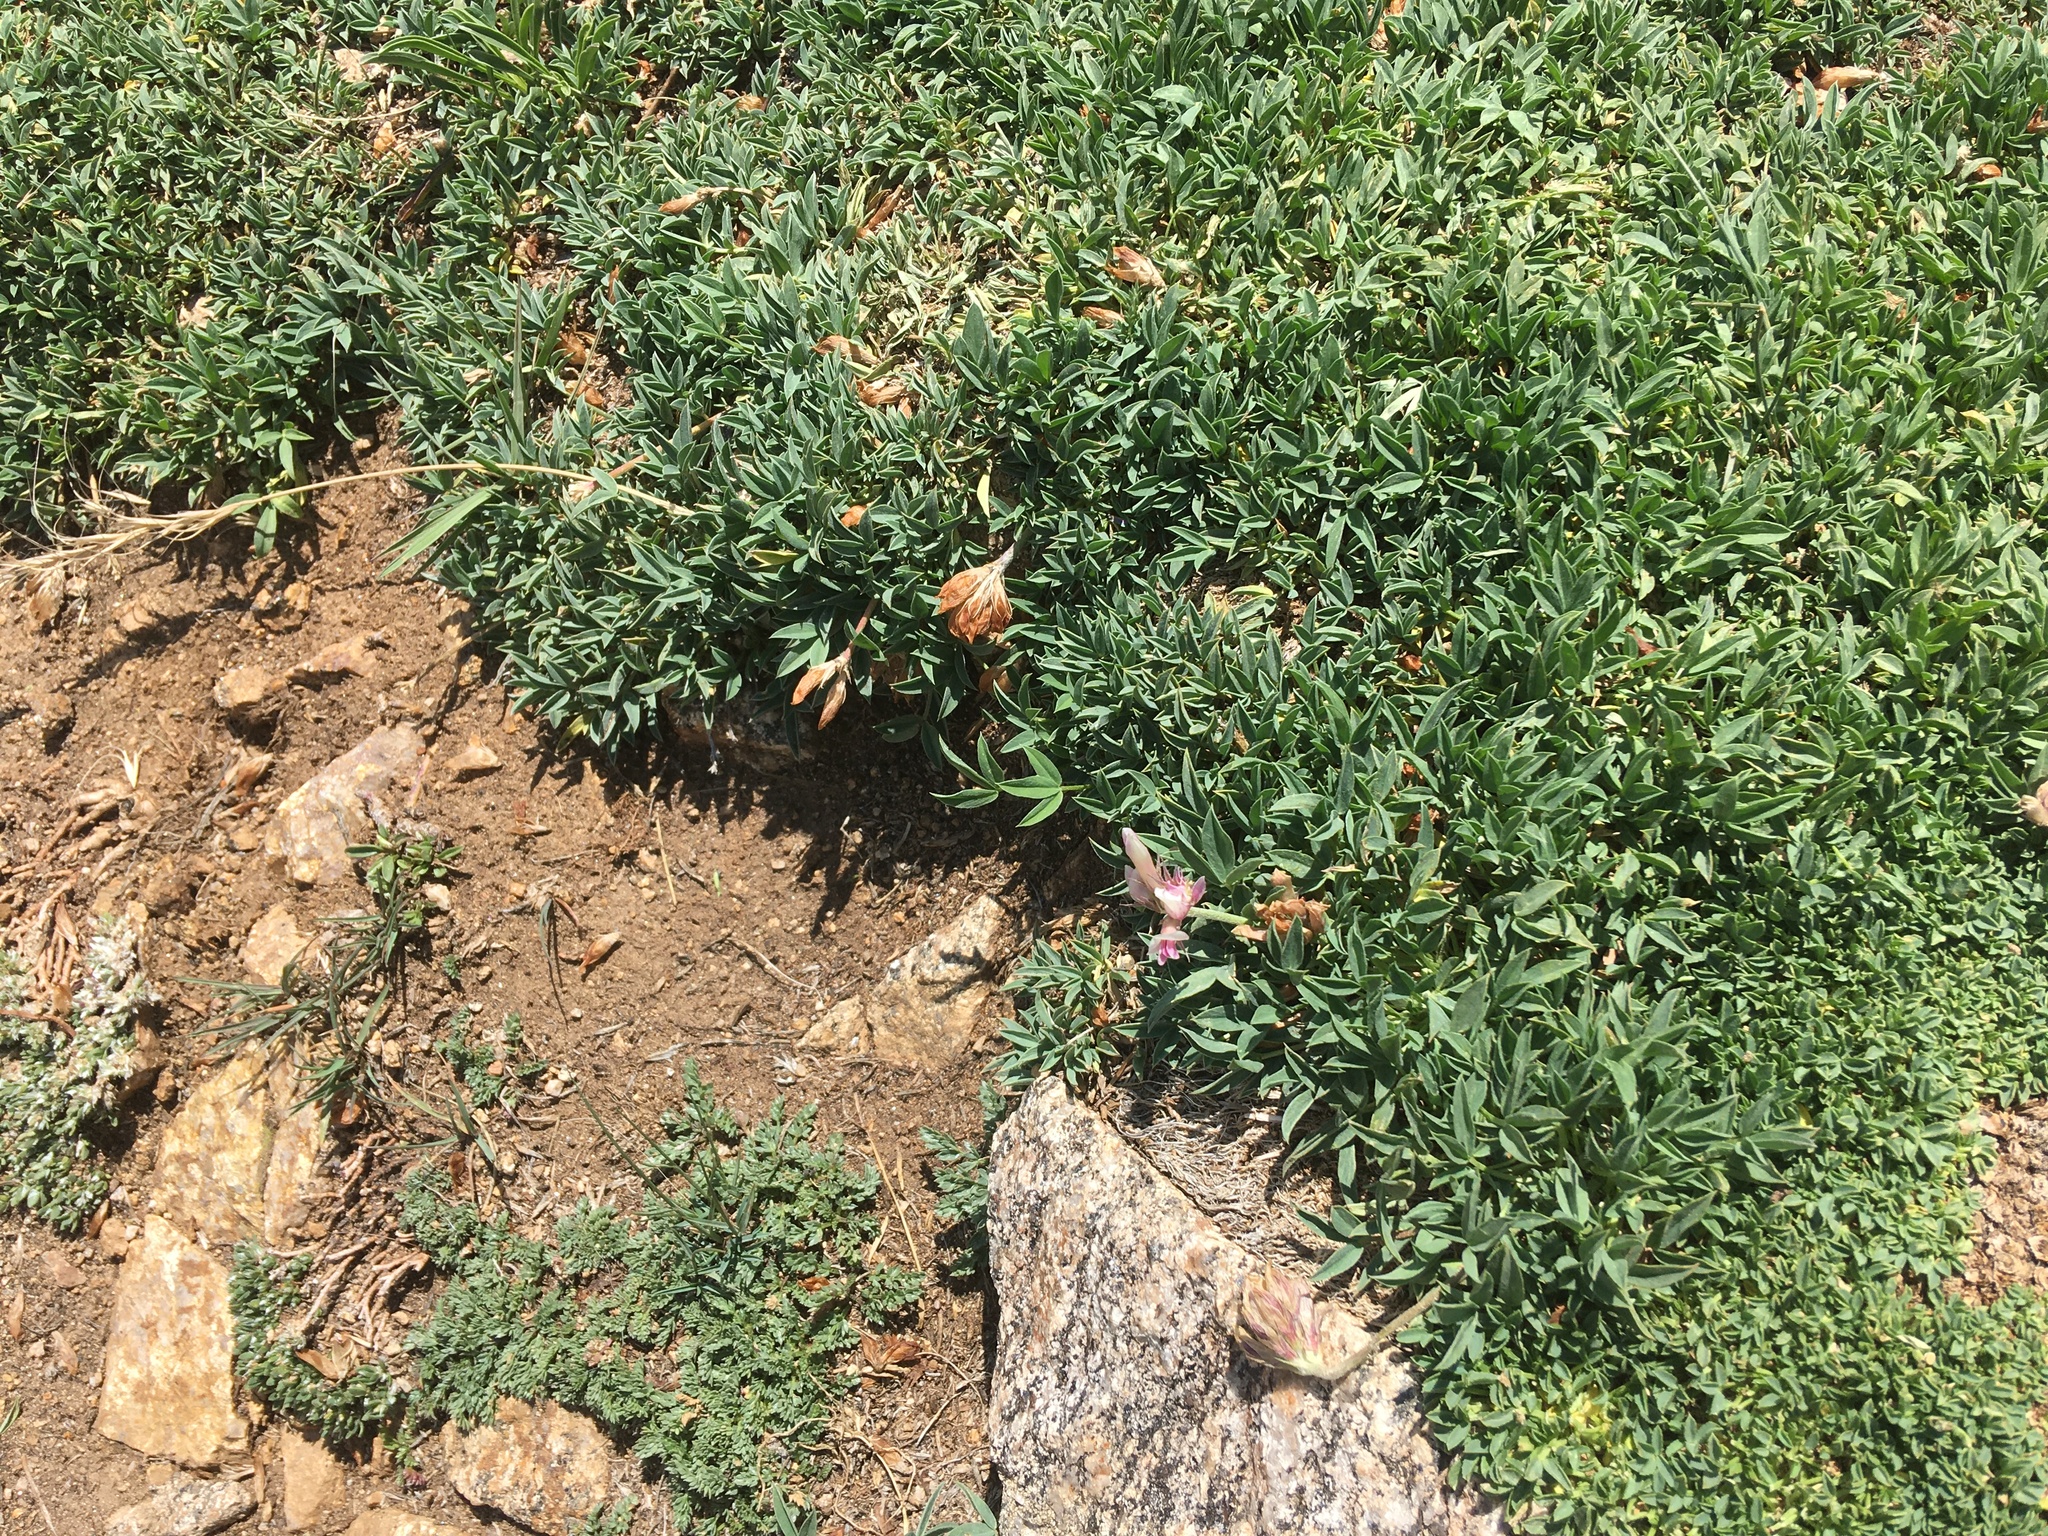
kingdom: Plantae
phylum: Tracheophyta
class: Magnoliopsida
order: Fabales
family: Fabaceae
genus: Trifolium
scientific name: Trifolium dasyphyllum
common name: Whip-root clover
